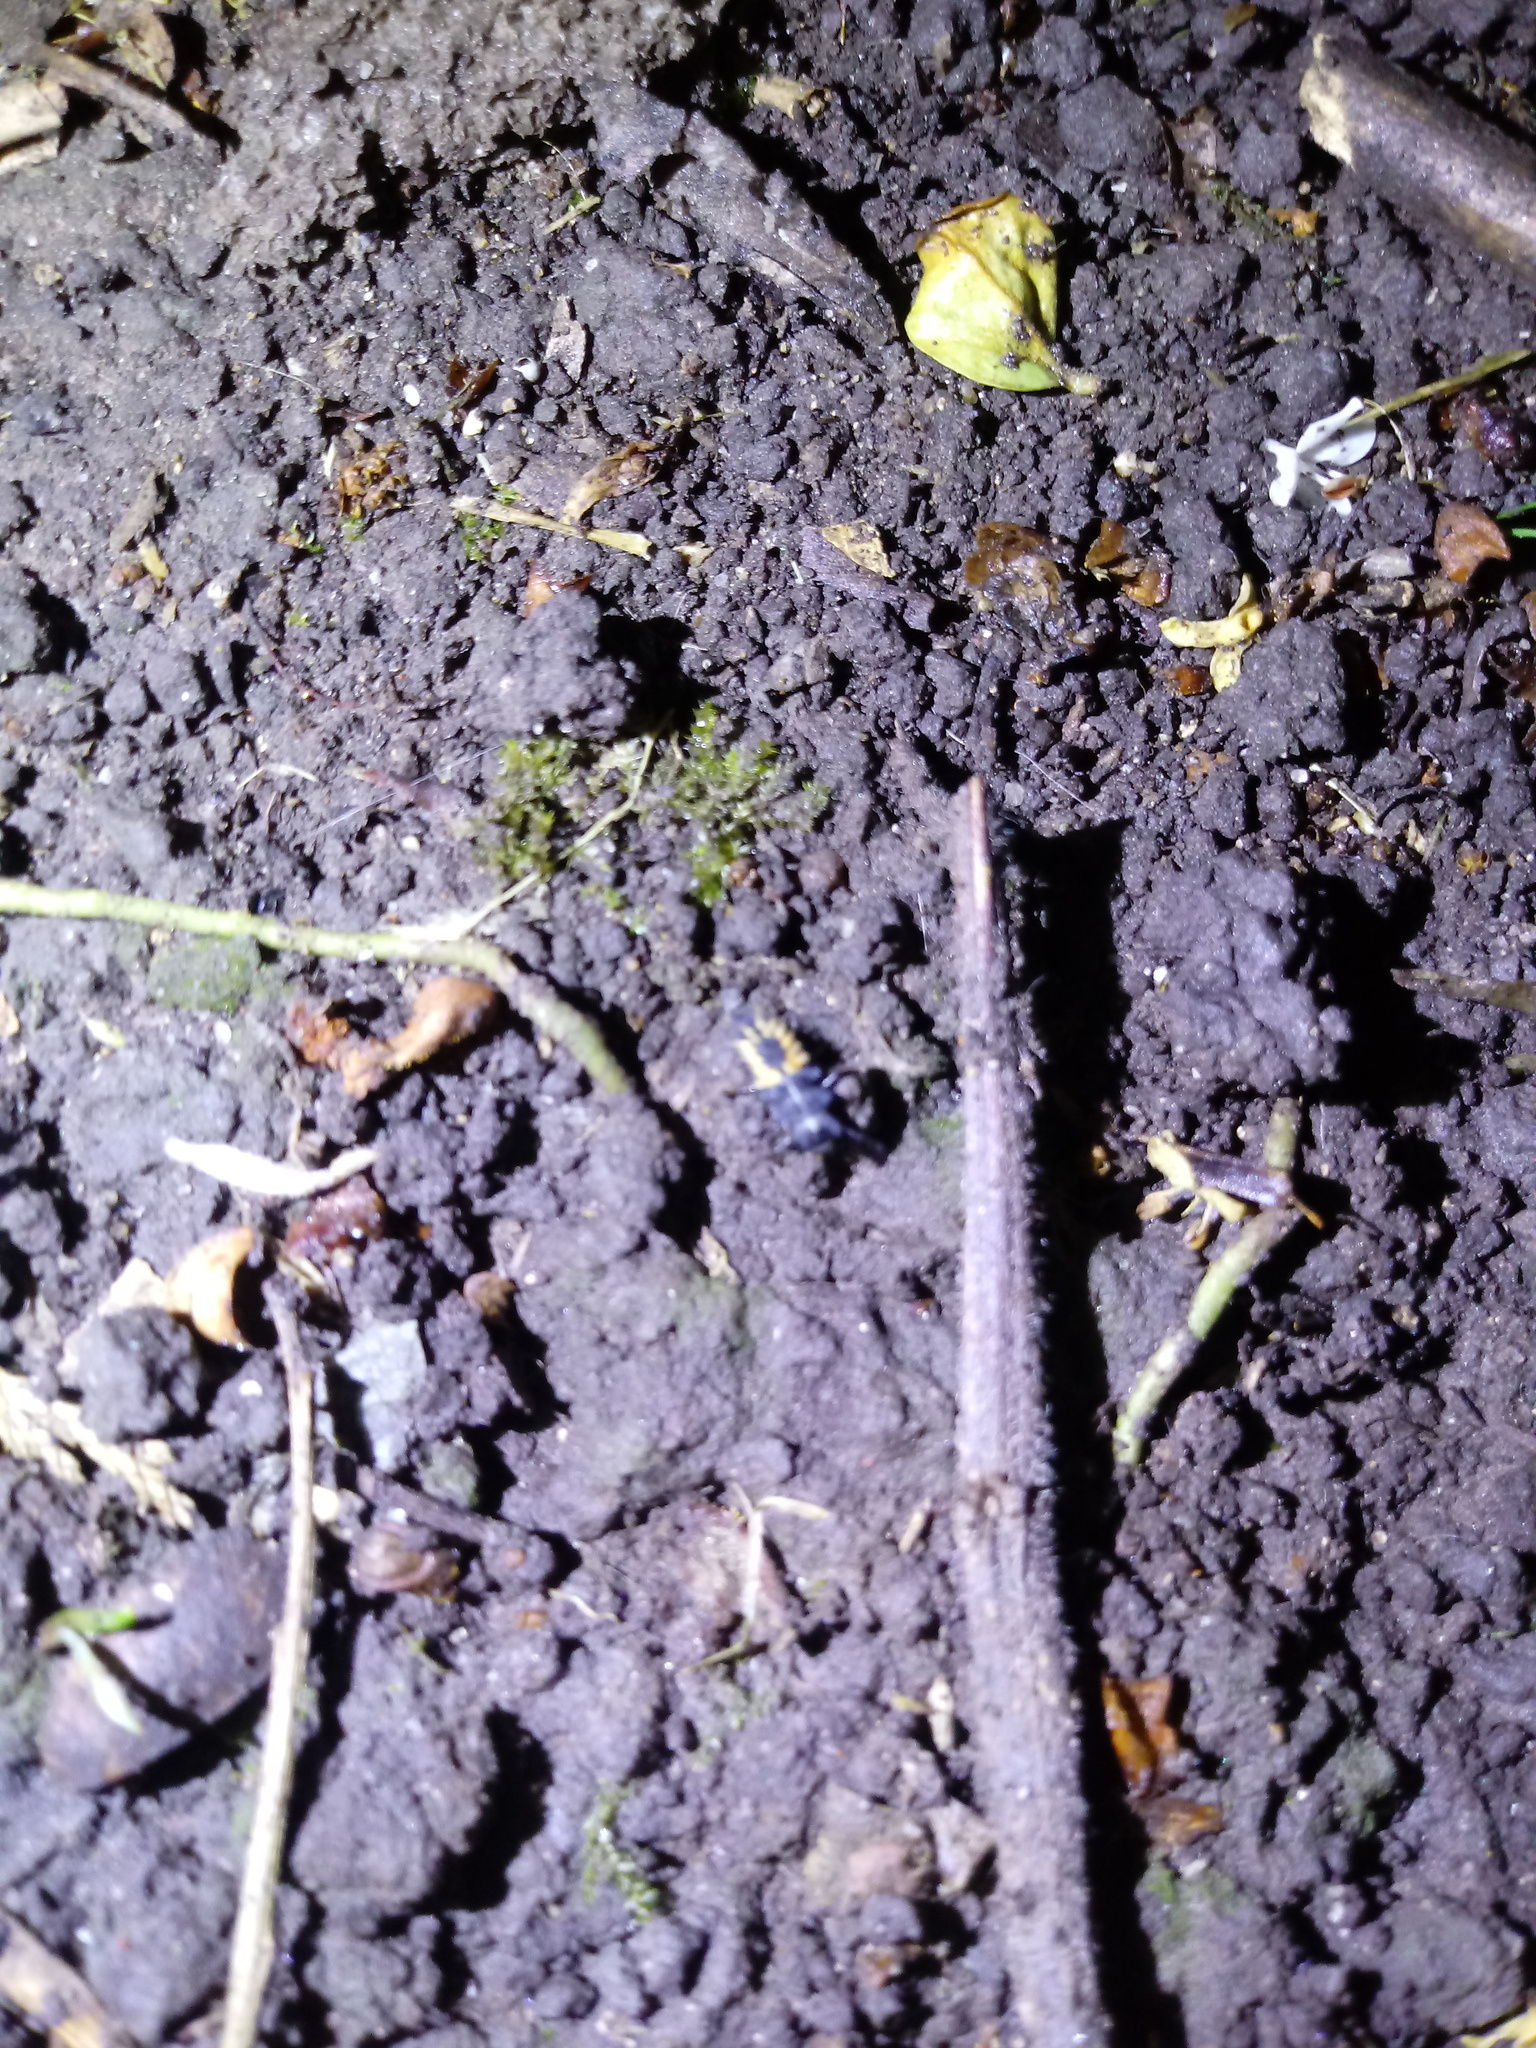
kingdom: Animalia
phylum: Arthropoda
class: Insecta
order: Coleoptera
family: Coccinellidae
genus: Harmonia
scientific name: Harmonia axyridis
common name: Harlequin ladybird
